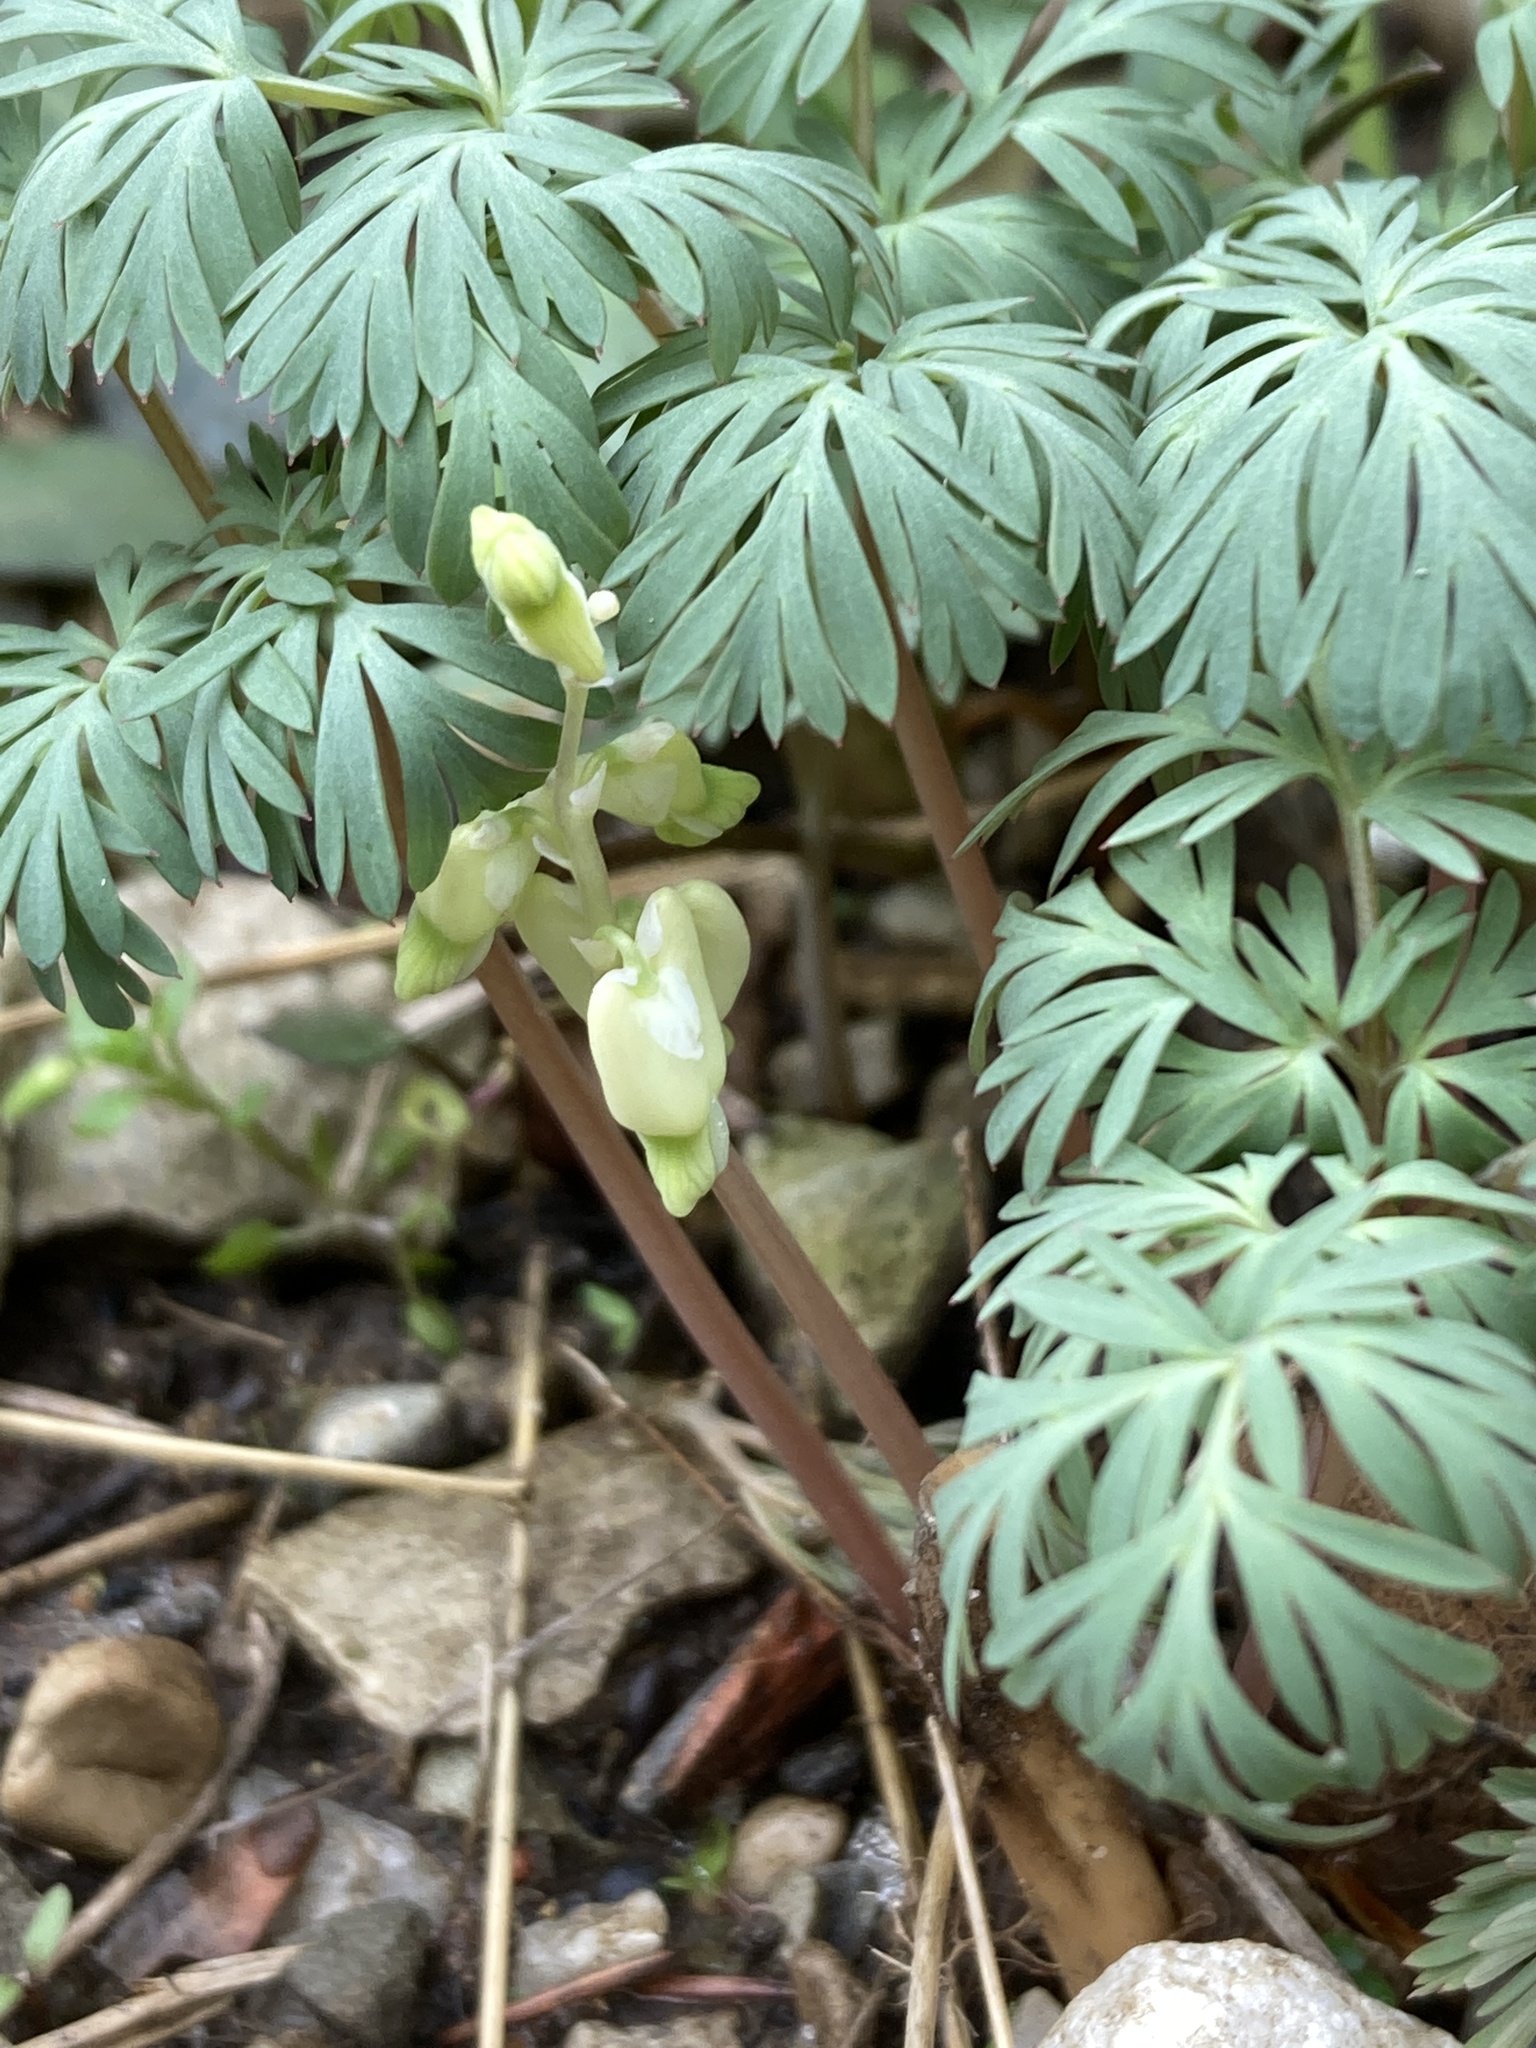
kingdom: Plantae
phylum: Tracheophyta
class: Magnoliopsida
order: Ranunculales
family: Papaveraceae
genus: Dicentra
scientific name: Dicentra cucullaria
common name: Dutchman's breeches
